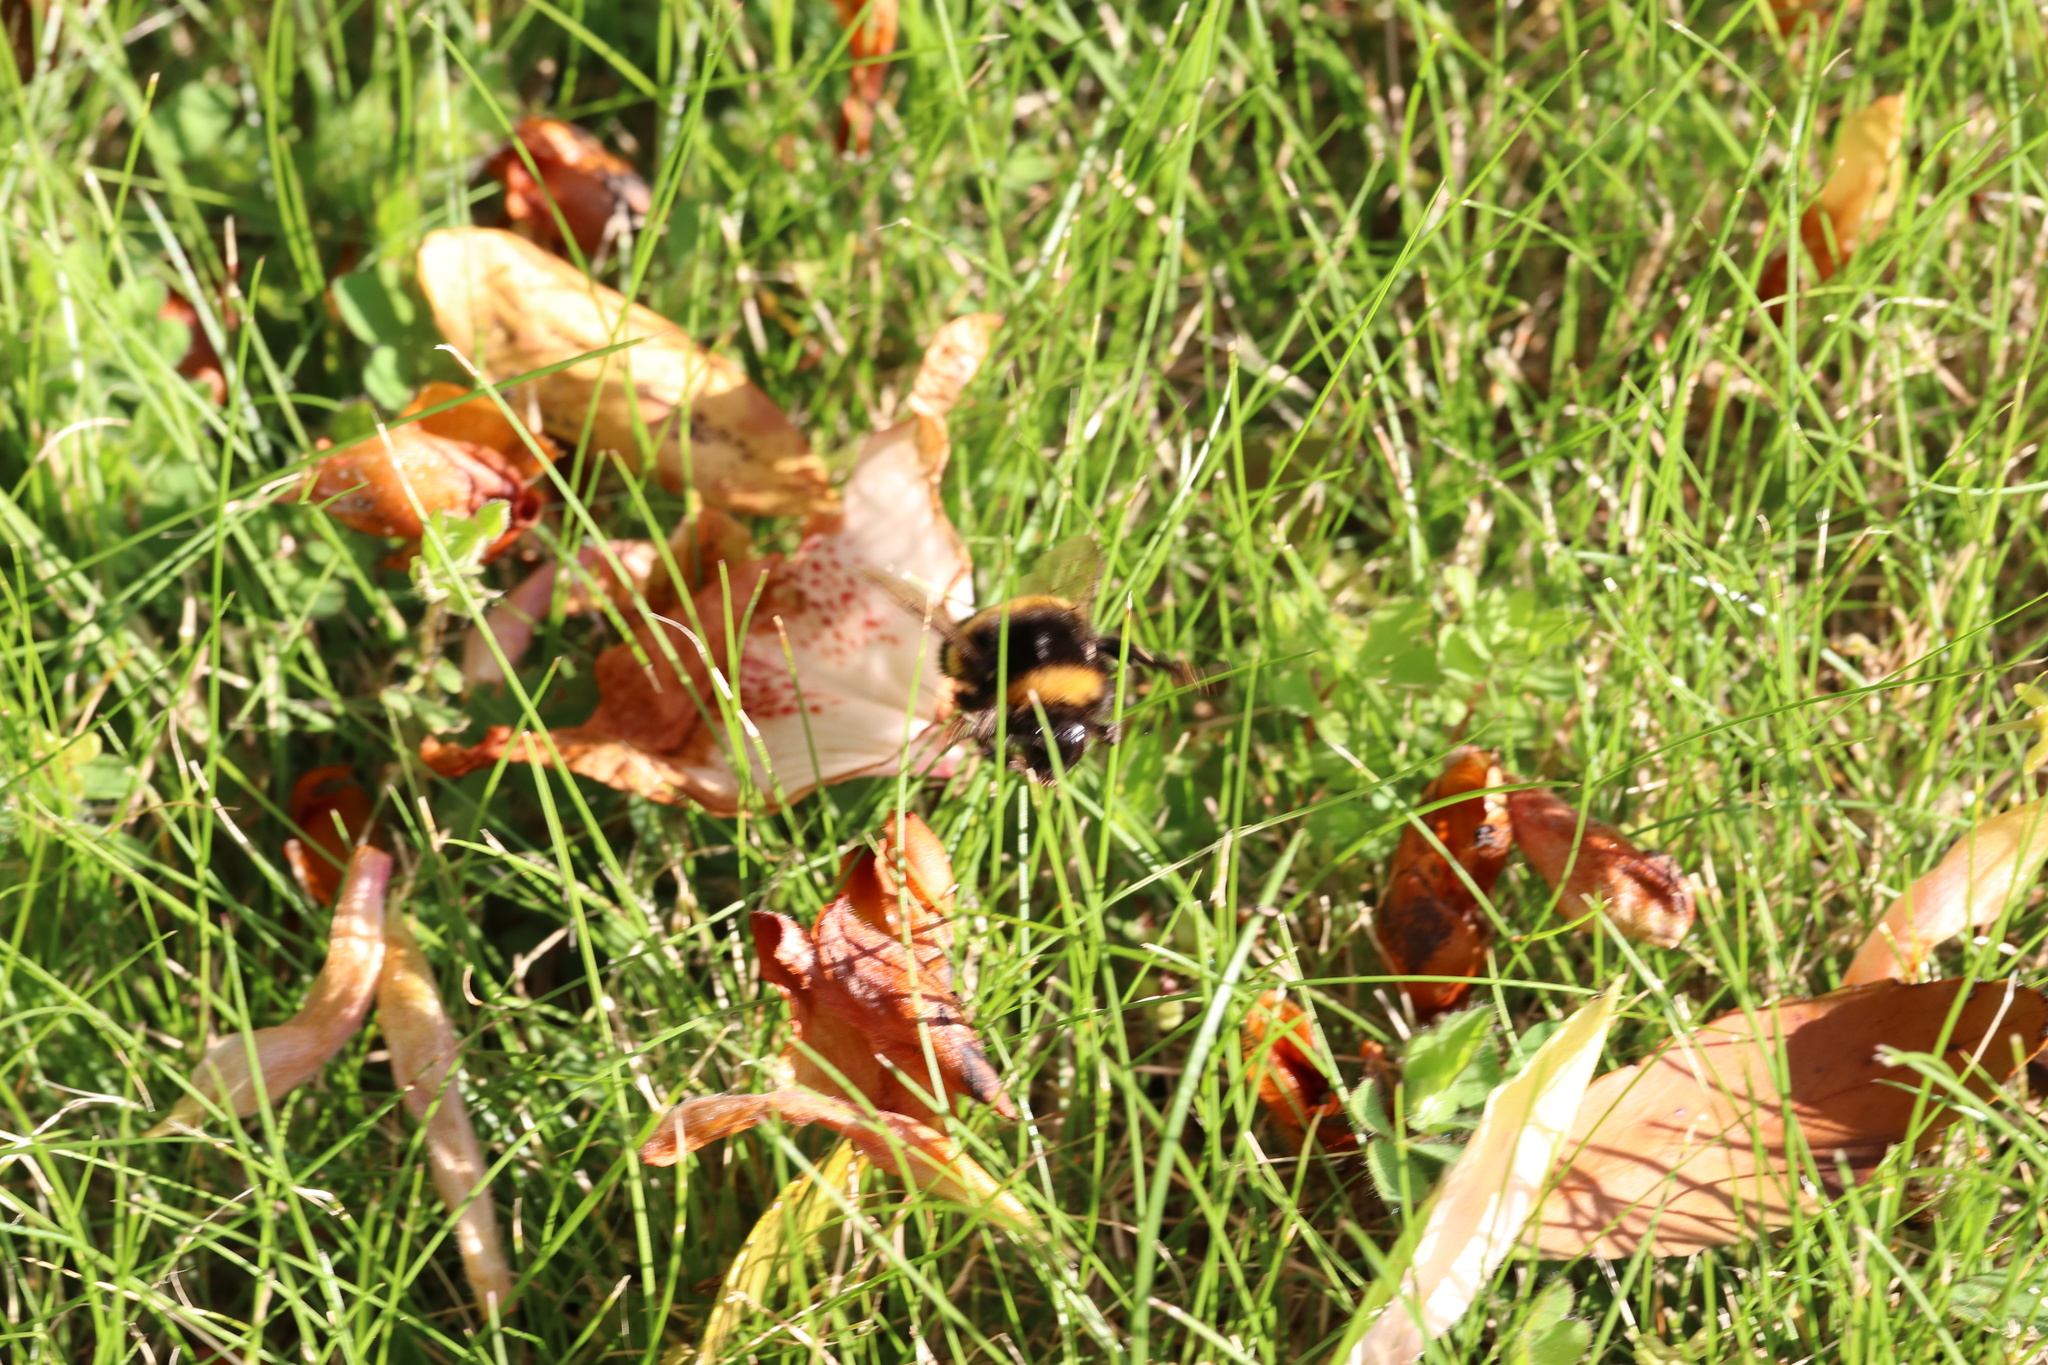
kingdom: Animalia
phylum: Arthropoda
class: Insecta
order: Hymenoptera
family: Apidae
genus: Bombus
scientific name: Bombus terrestris
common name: Buff-tailed bumblebee
